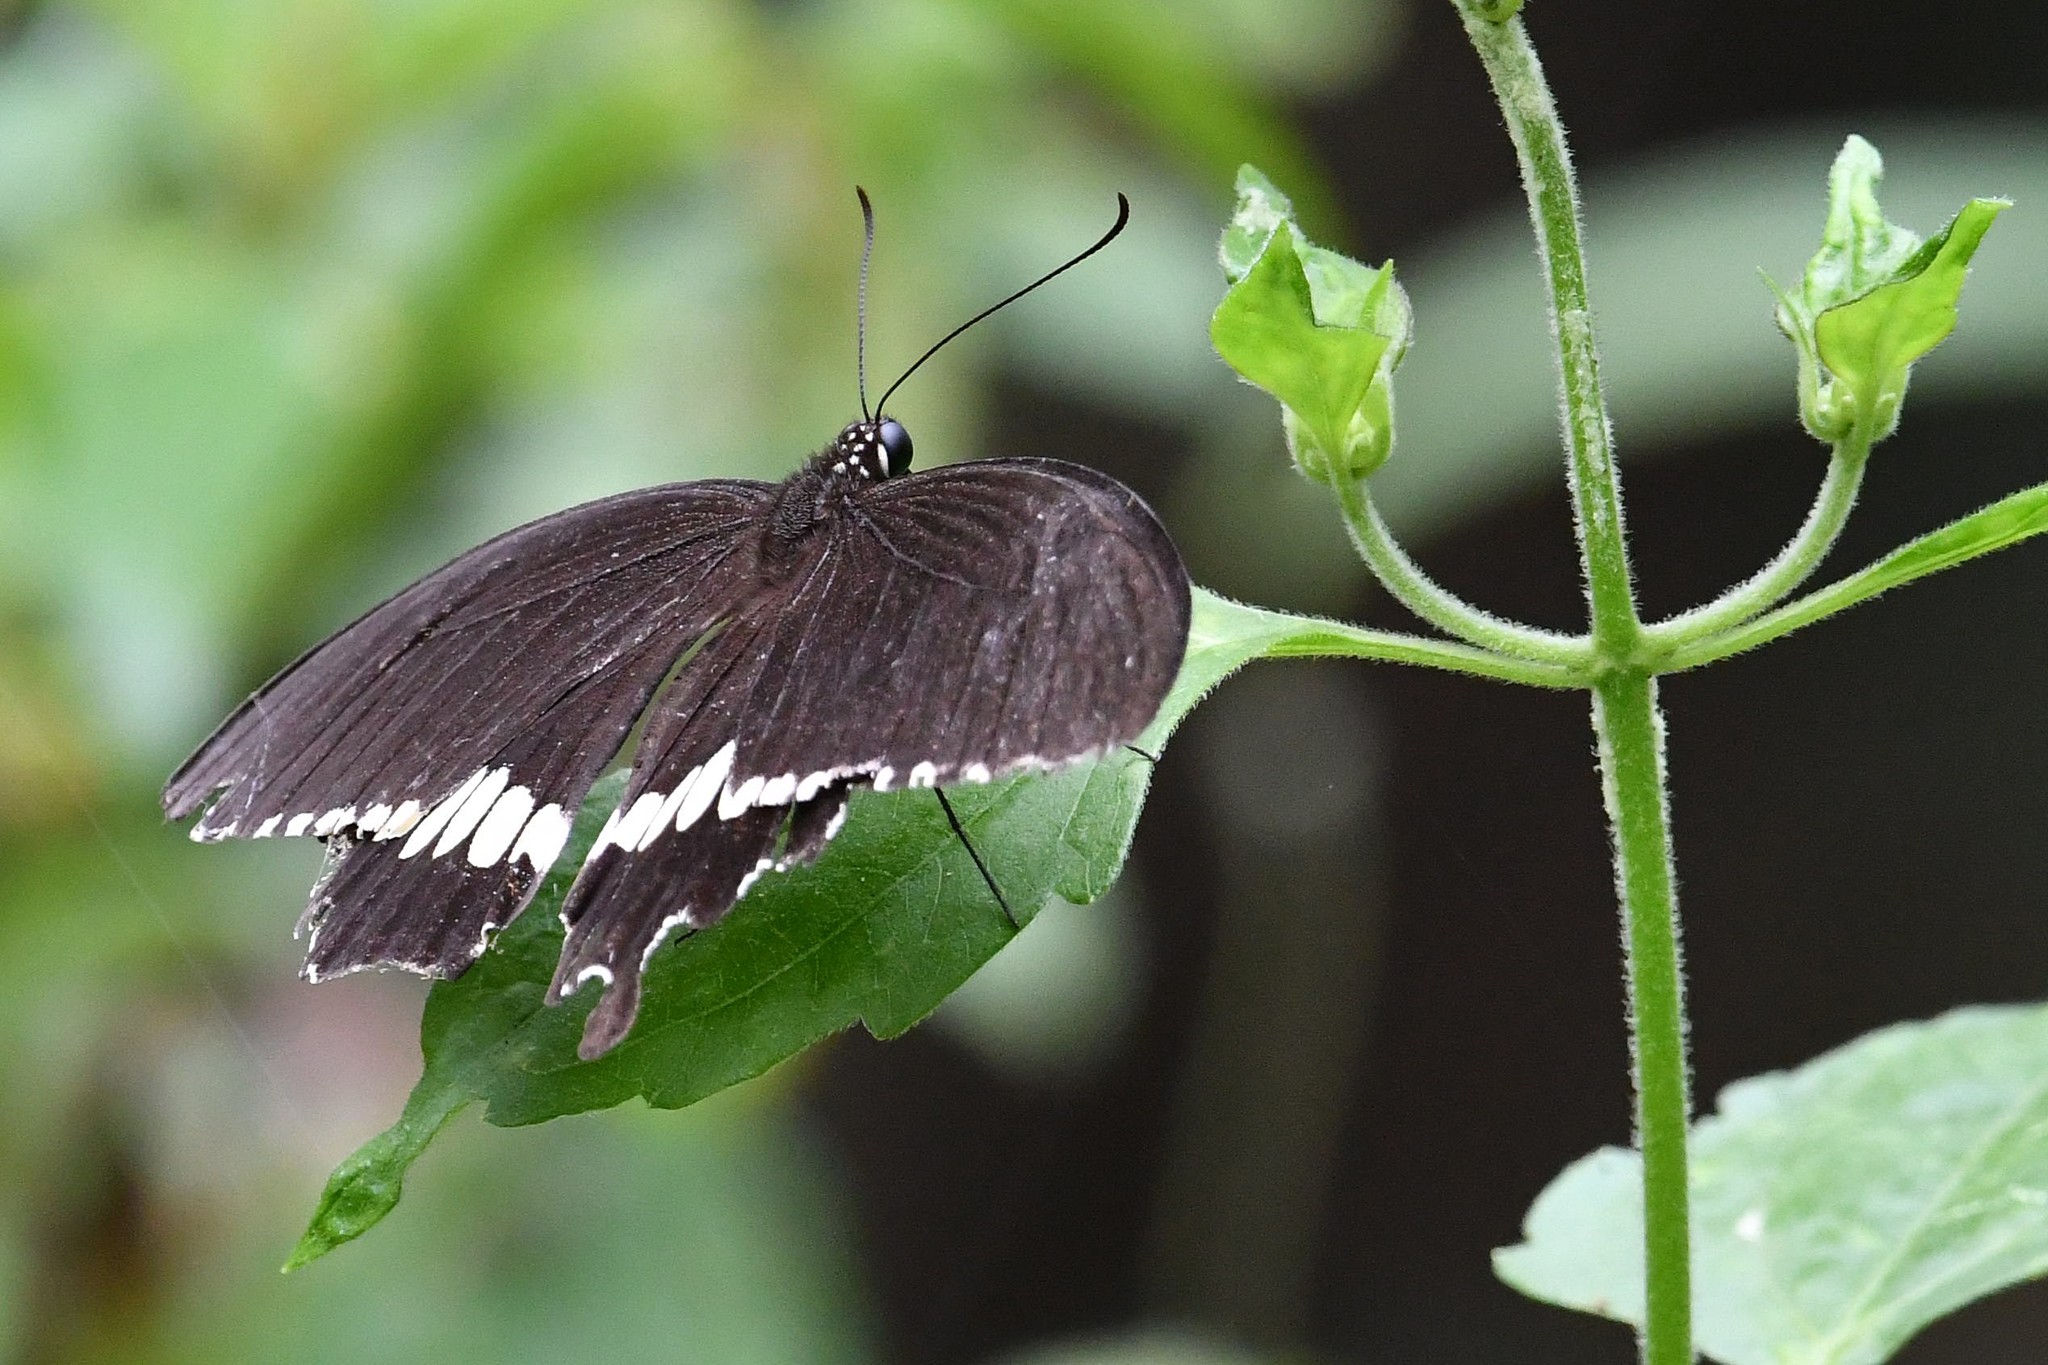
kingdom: Animalia
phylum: Arthropoda
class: Insecta
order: Lepidoptera
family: Papilionidae
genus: Papilio
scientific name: Papilio polytes
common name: Common mormon
